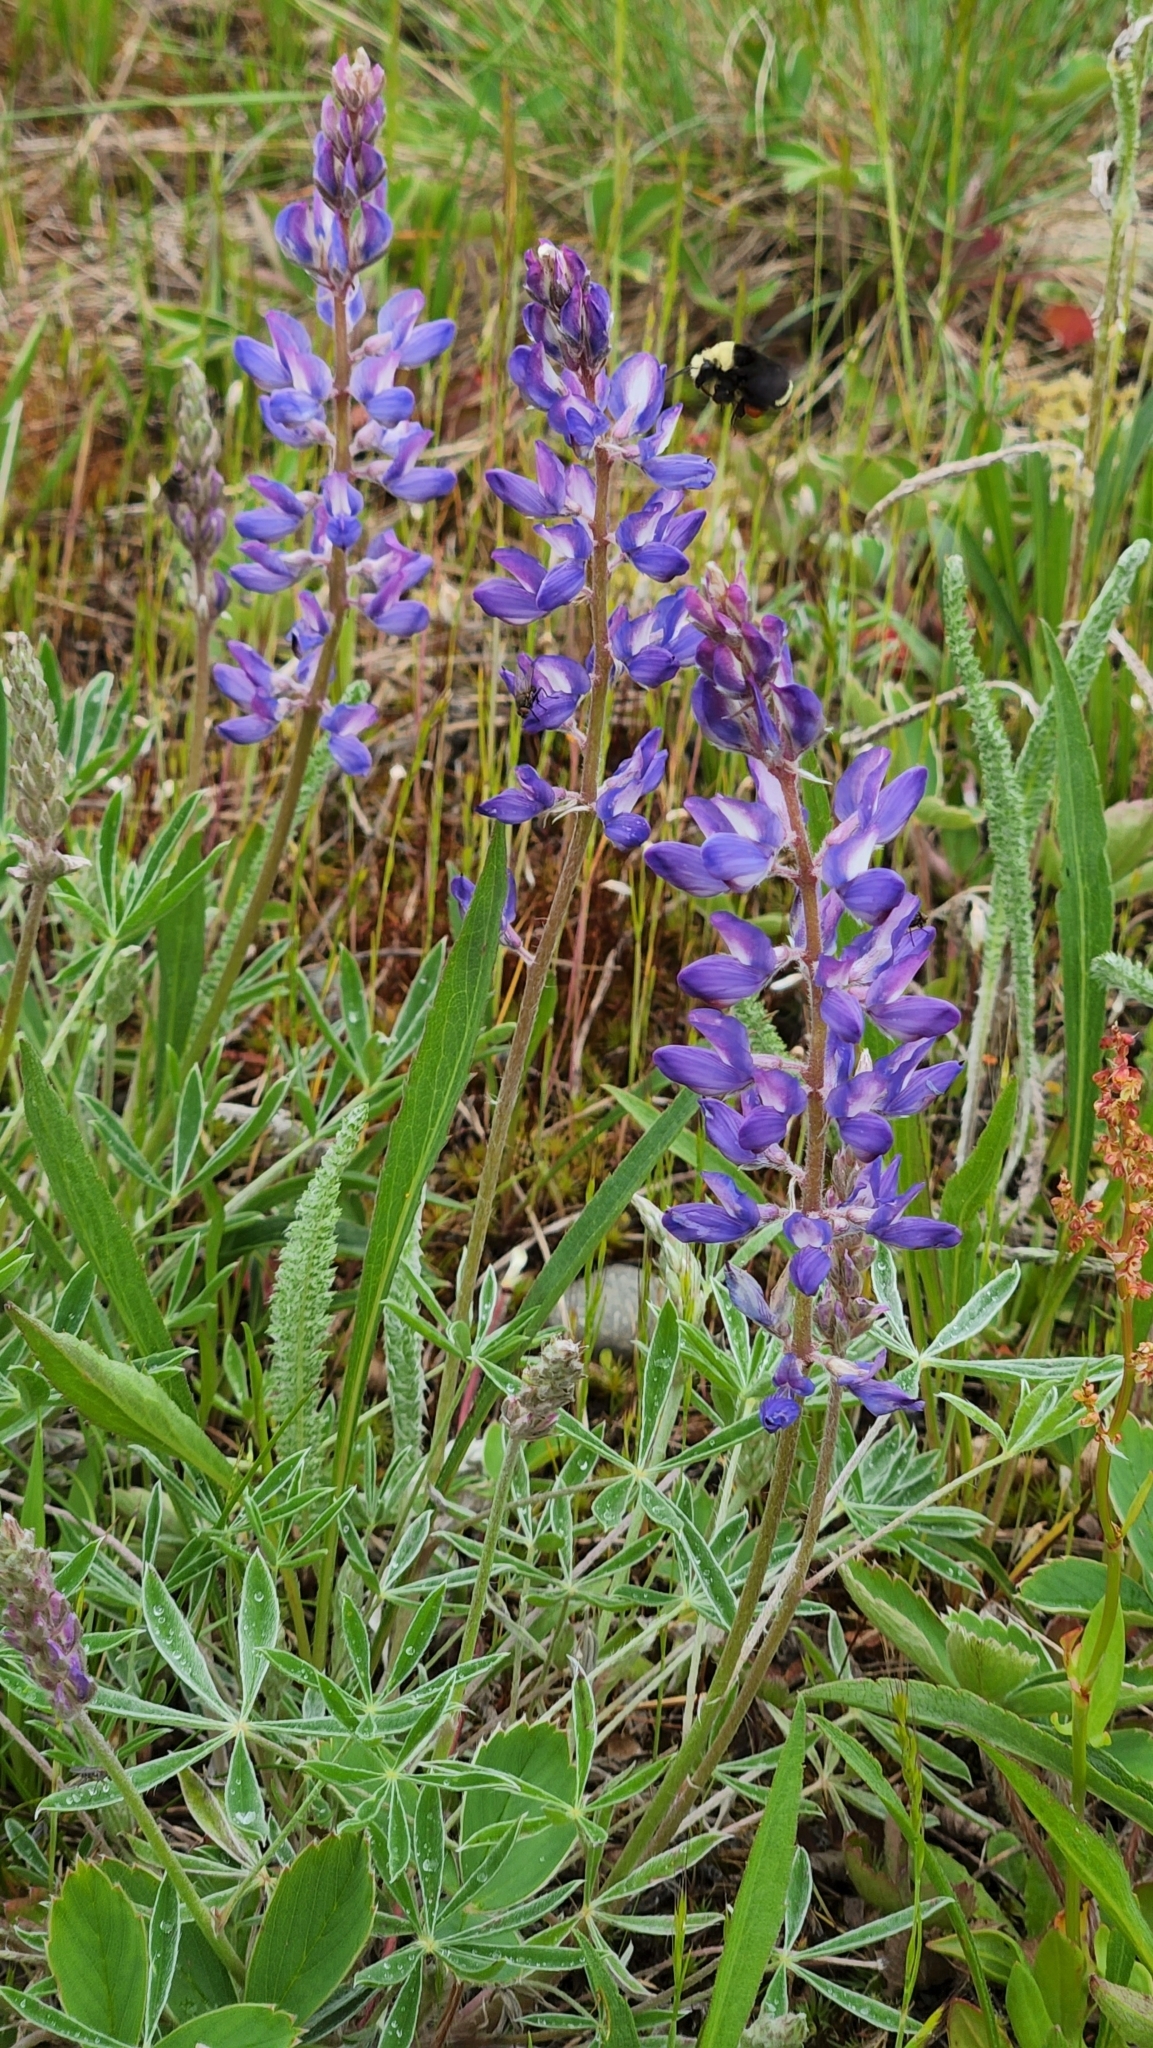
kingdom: Plantae
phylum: Tracheophyta
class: Magnoliopsida
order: Fabales
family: Fabaceae
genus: Lupinus
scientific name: Lupinus lepidus
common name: Prairie lupine
